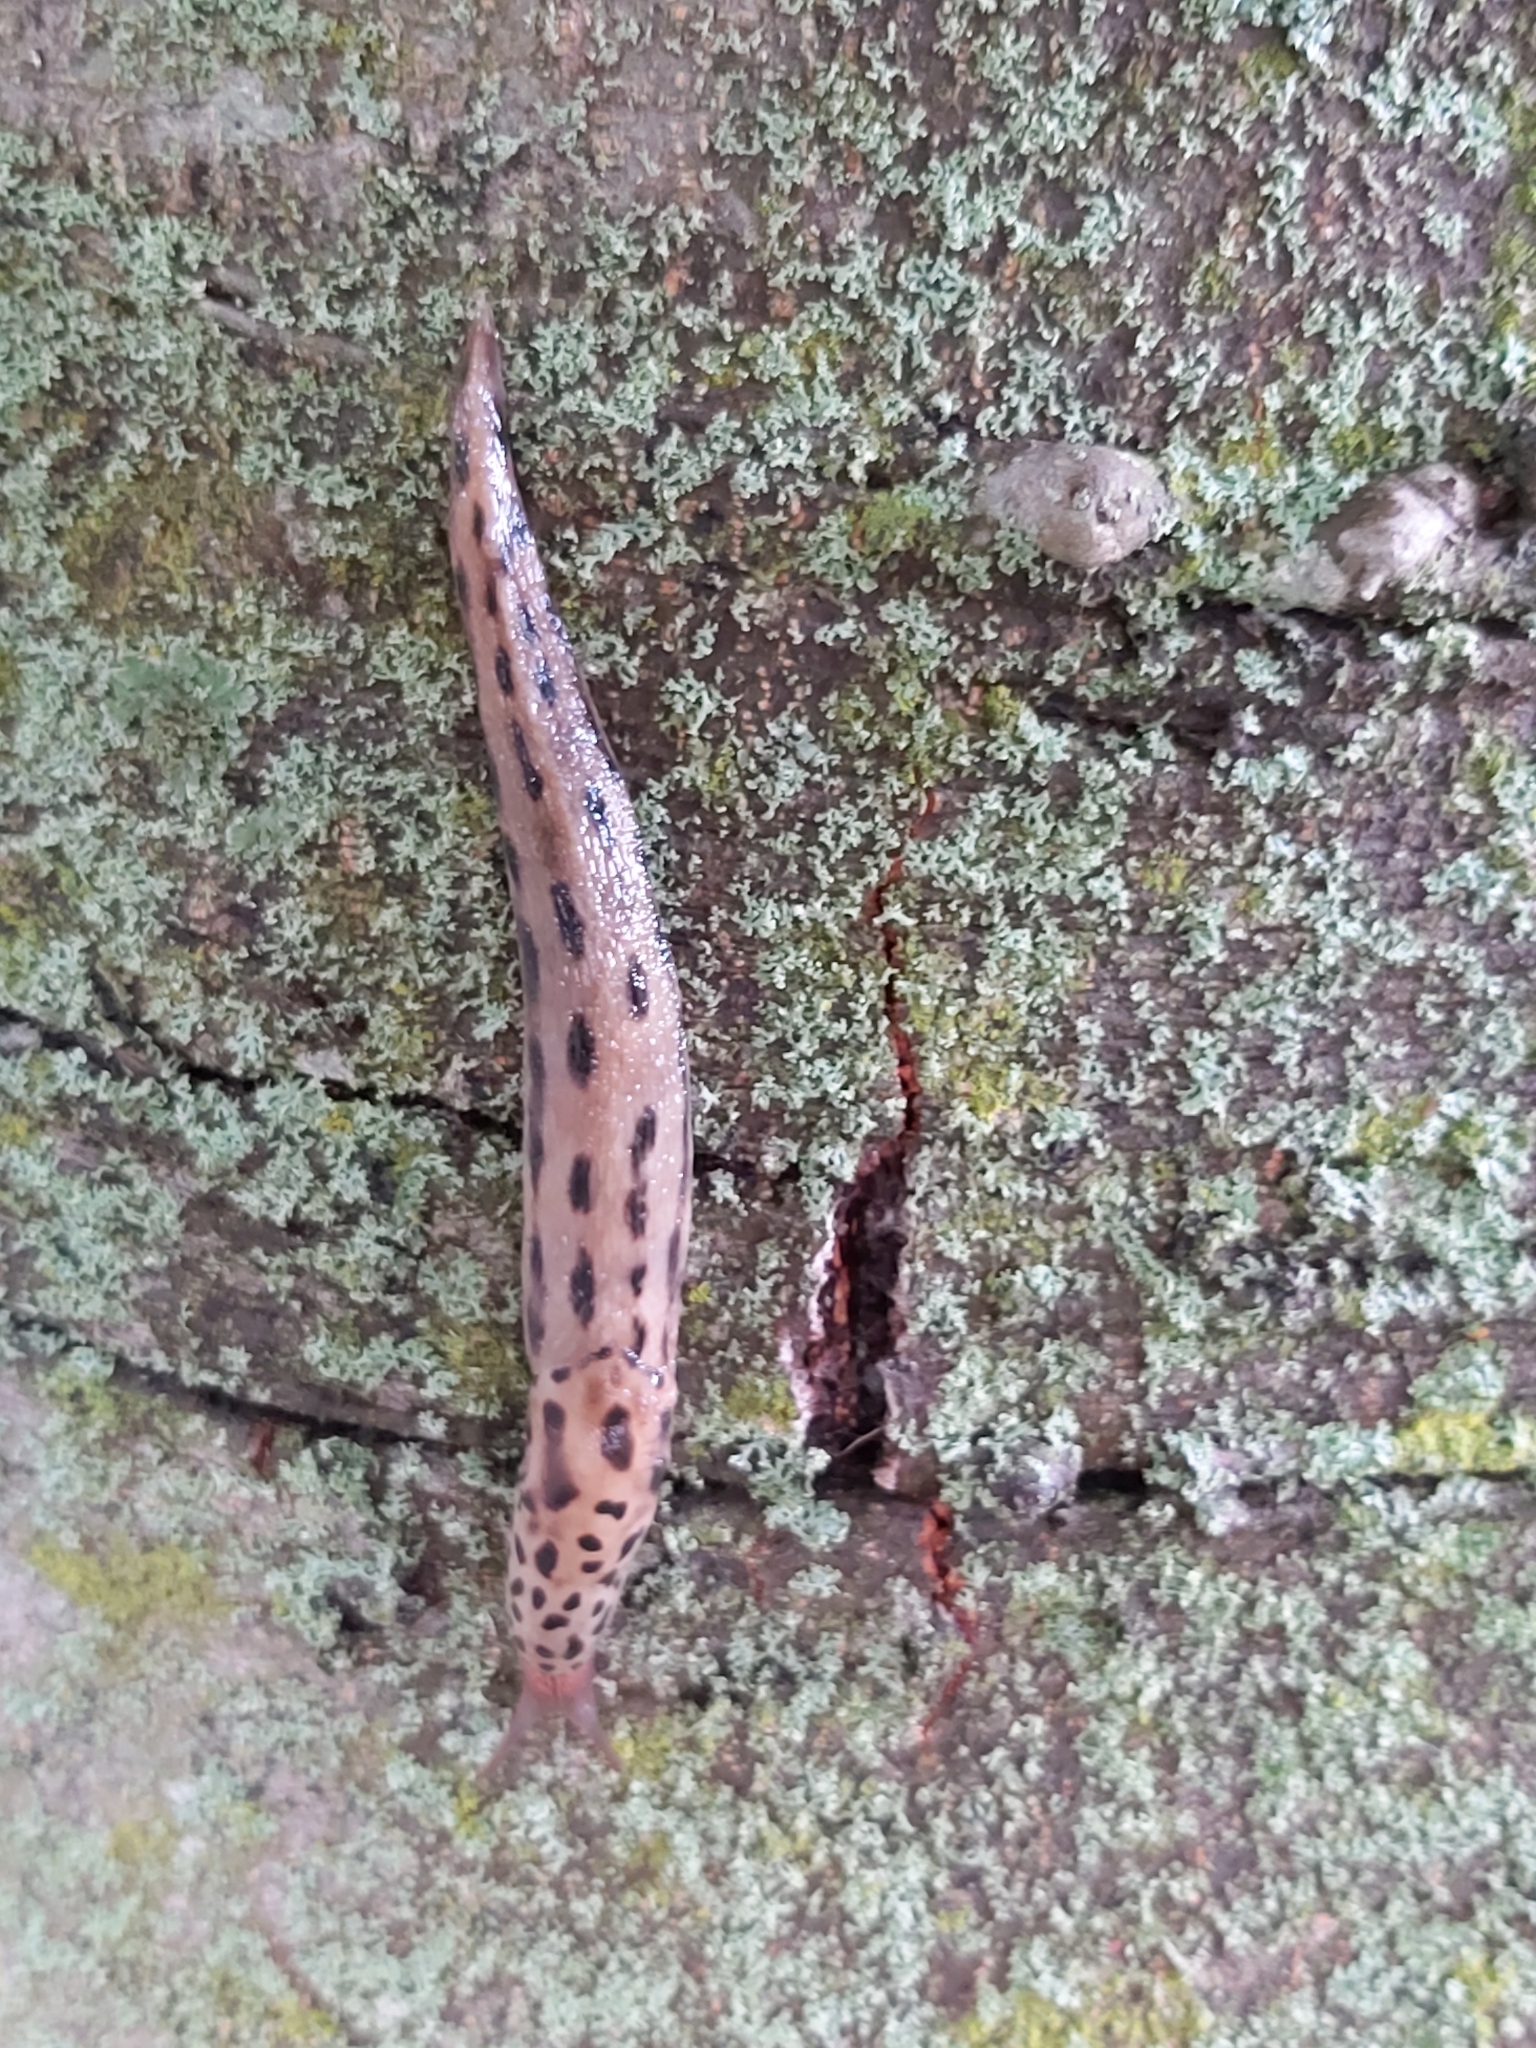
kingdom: Animalia
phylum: Mollusca
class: Gastropoda
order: Stylommatophora
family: Limacidae
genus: Limax
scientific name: Limax maximus
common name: Great grey slug
